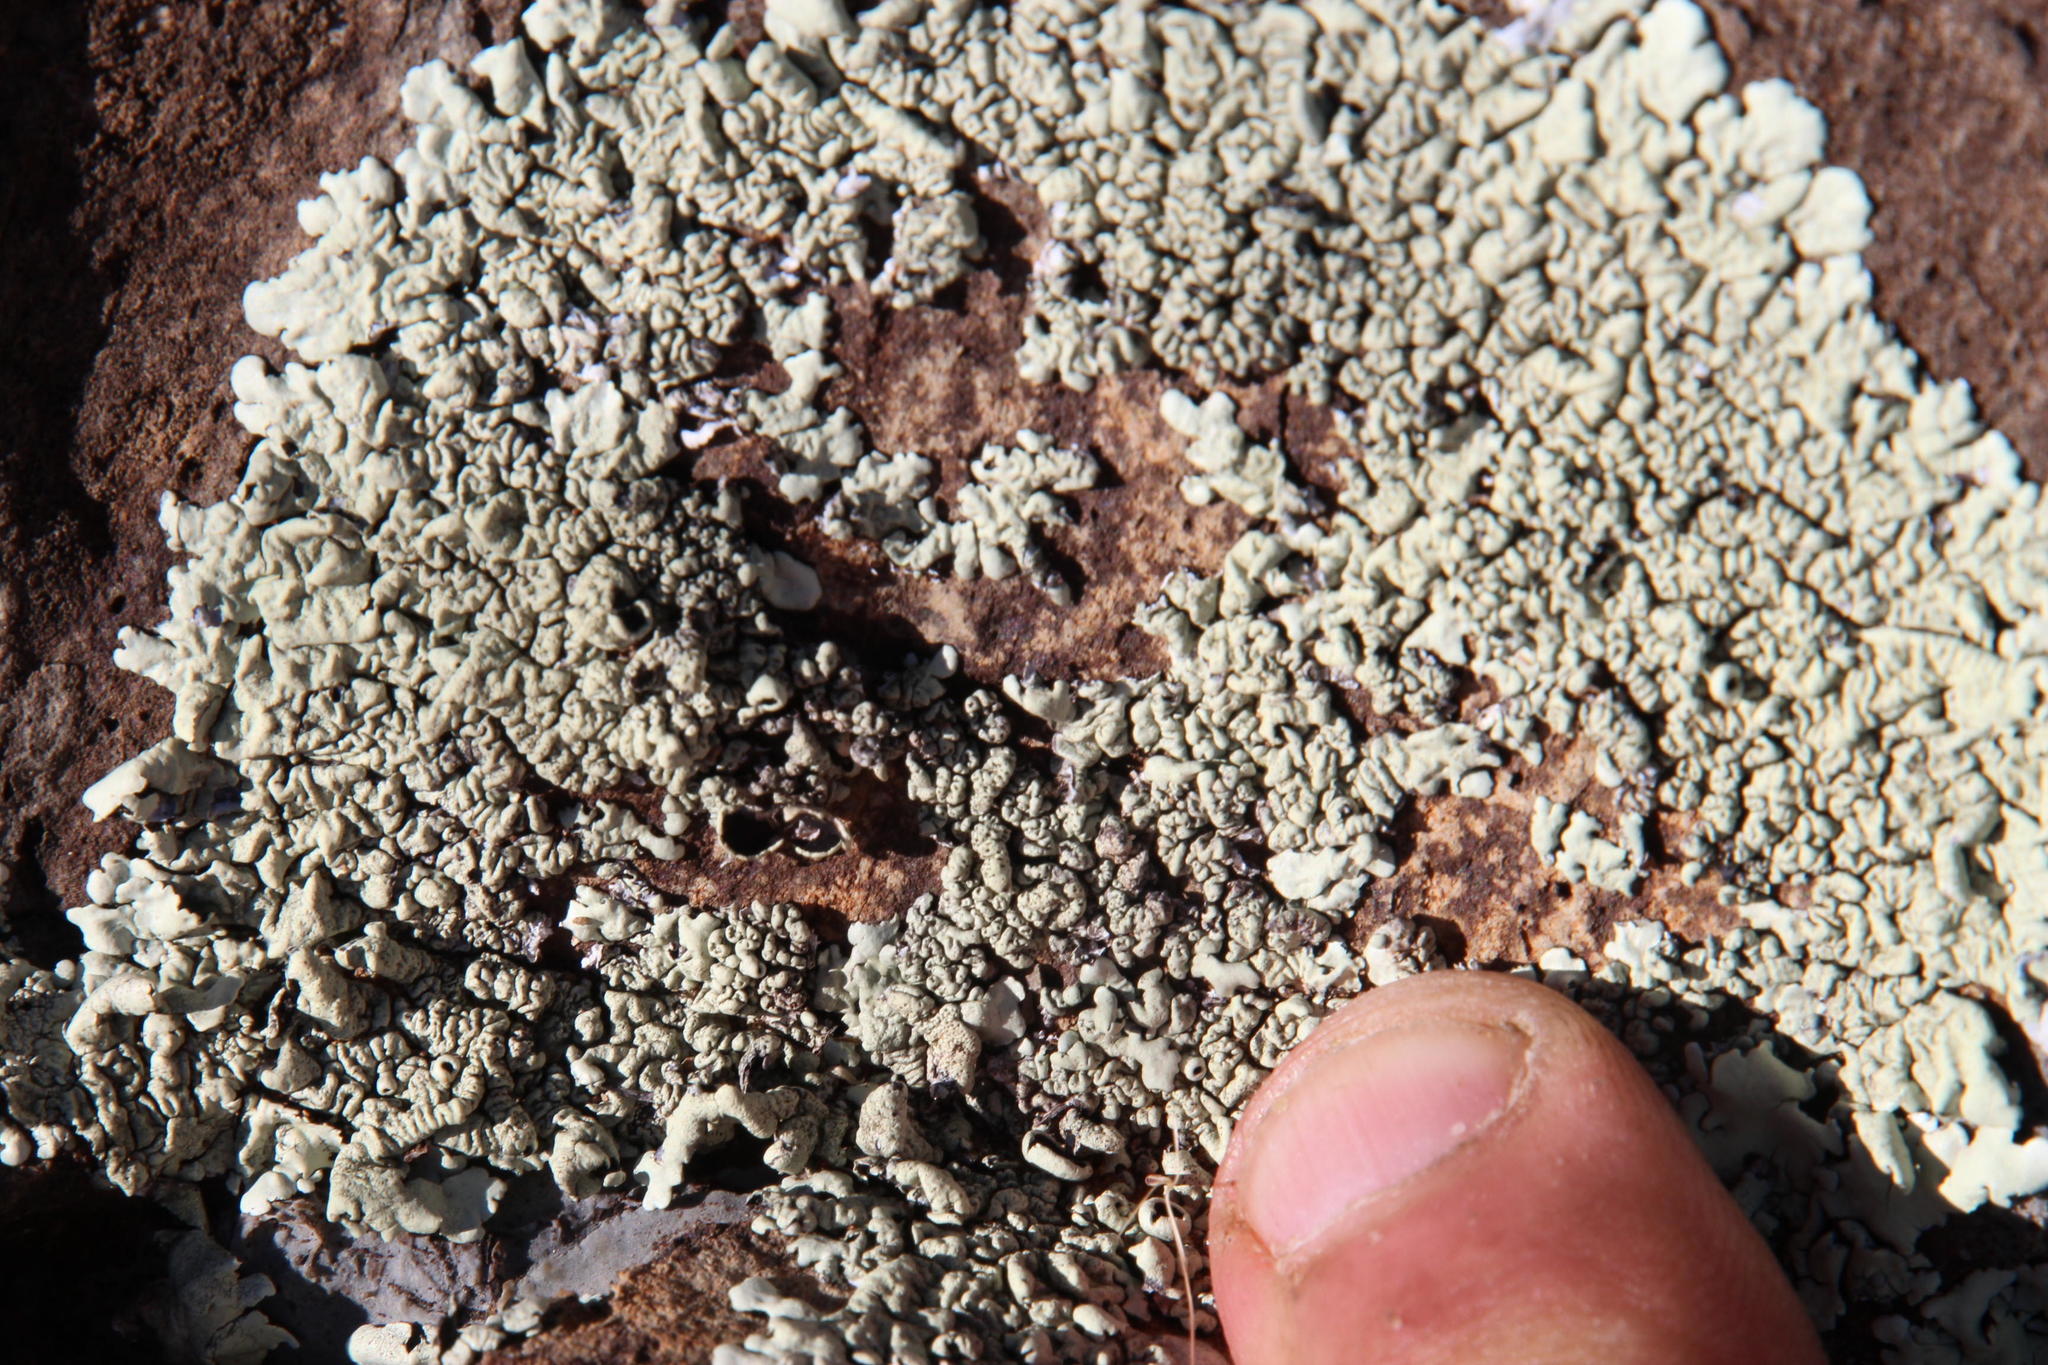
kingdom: Fungi
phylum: Ascomycota
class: Lecanoromycetes
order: Lecanorales
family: Parmeliaceae
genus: Xanthoparmelia
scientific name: Xanthoparmelia equalis
